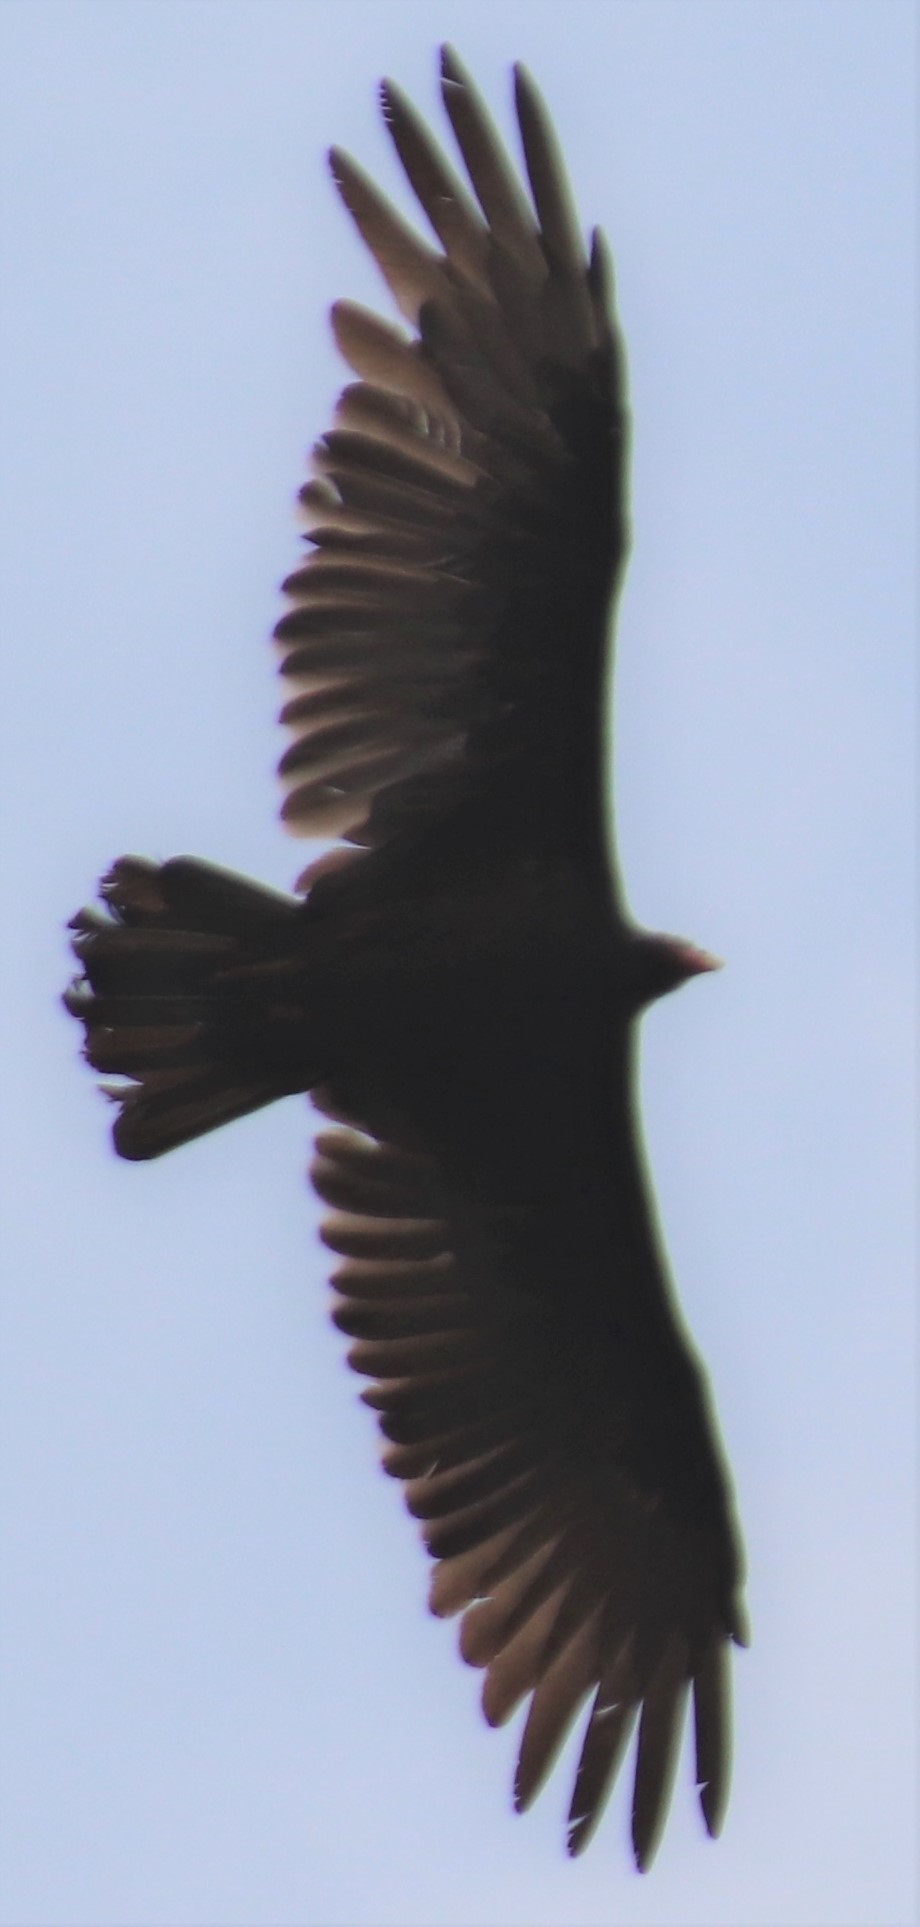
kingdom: Animalia
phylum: Chordata
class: Aves
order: Accipitriformes
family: Cathartidae
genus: Cathartes
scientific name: Cathartes aura
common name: Turkey vulture
